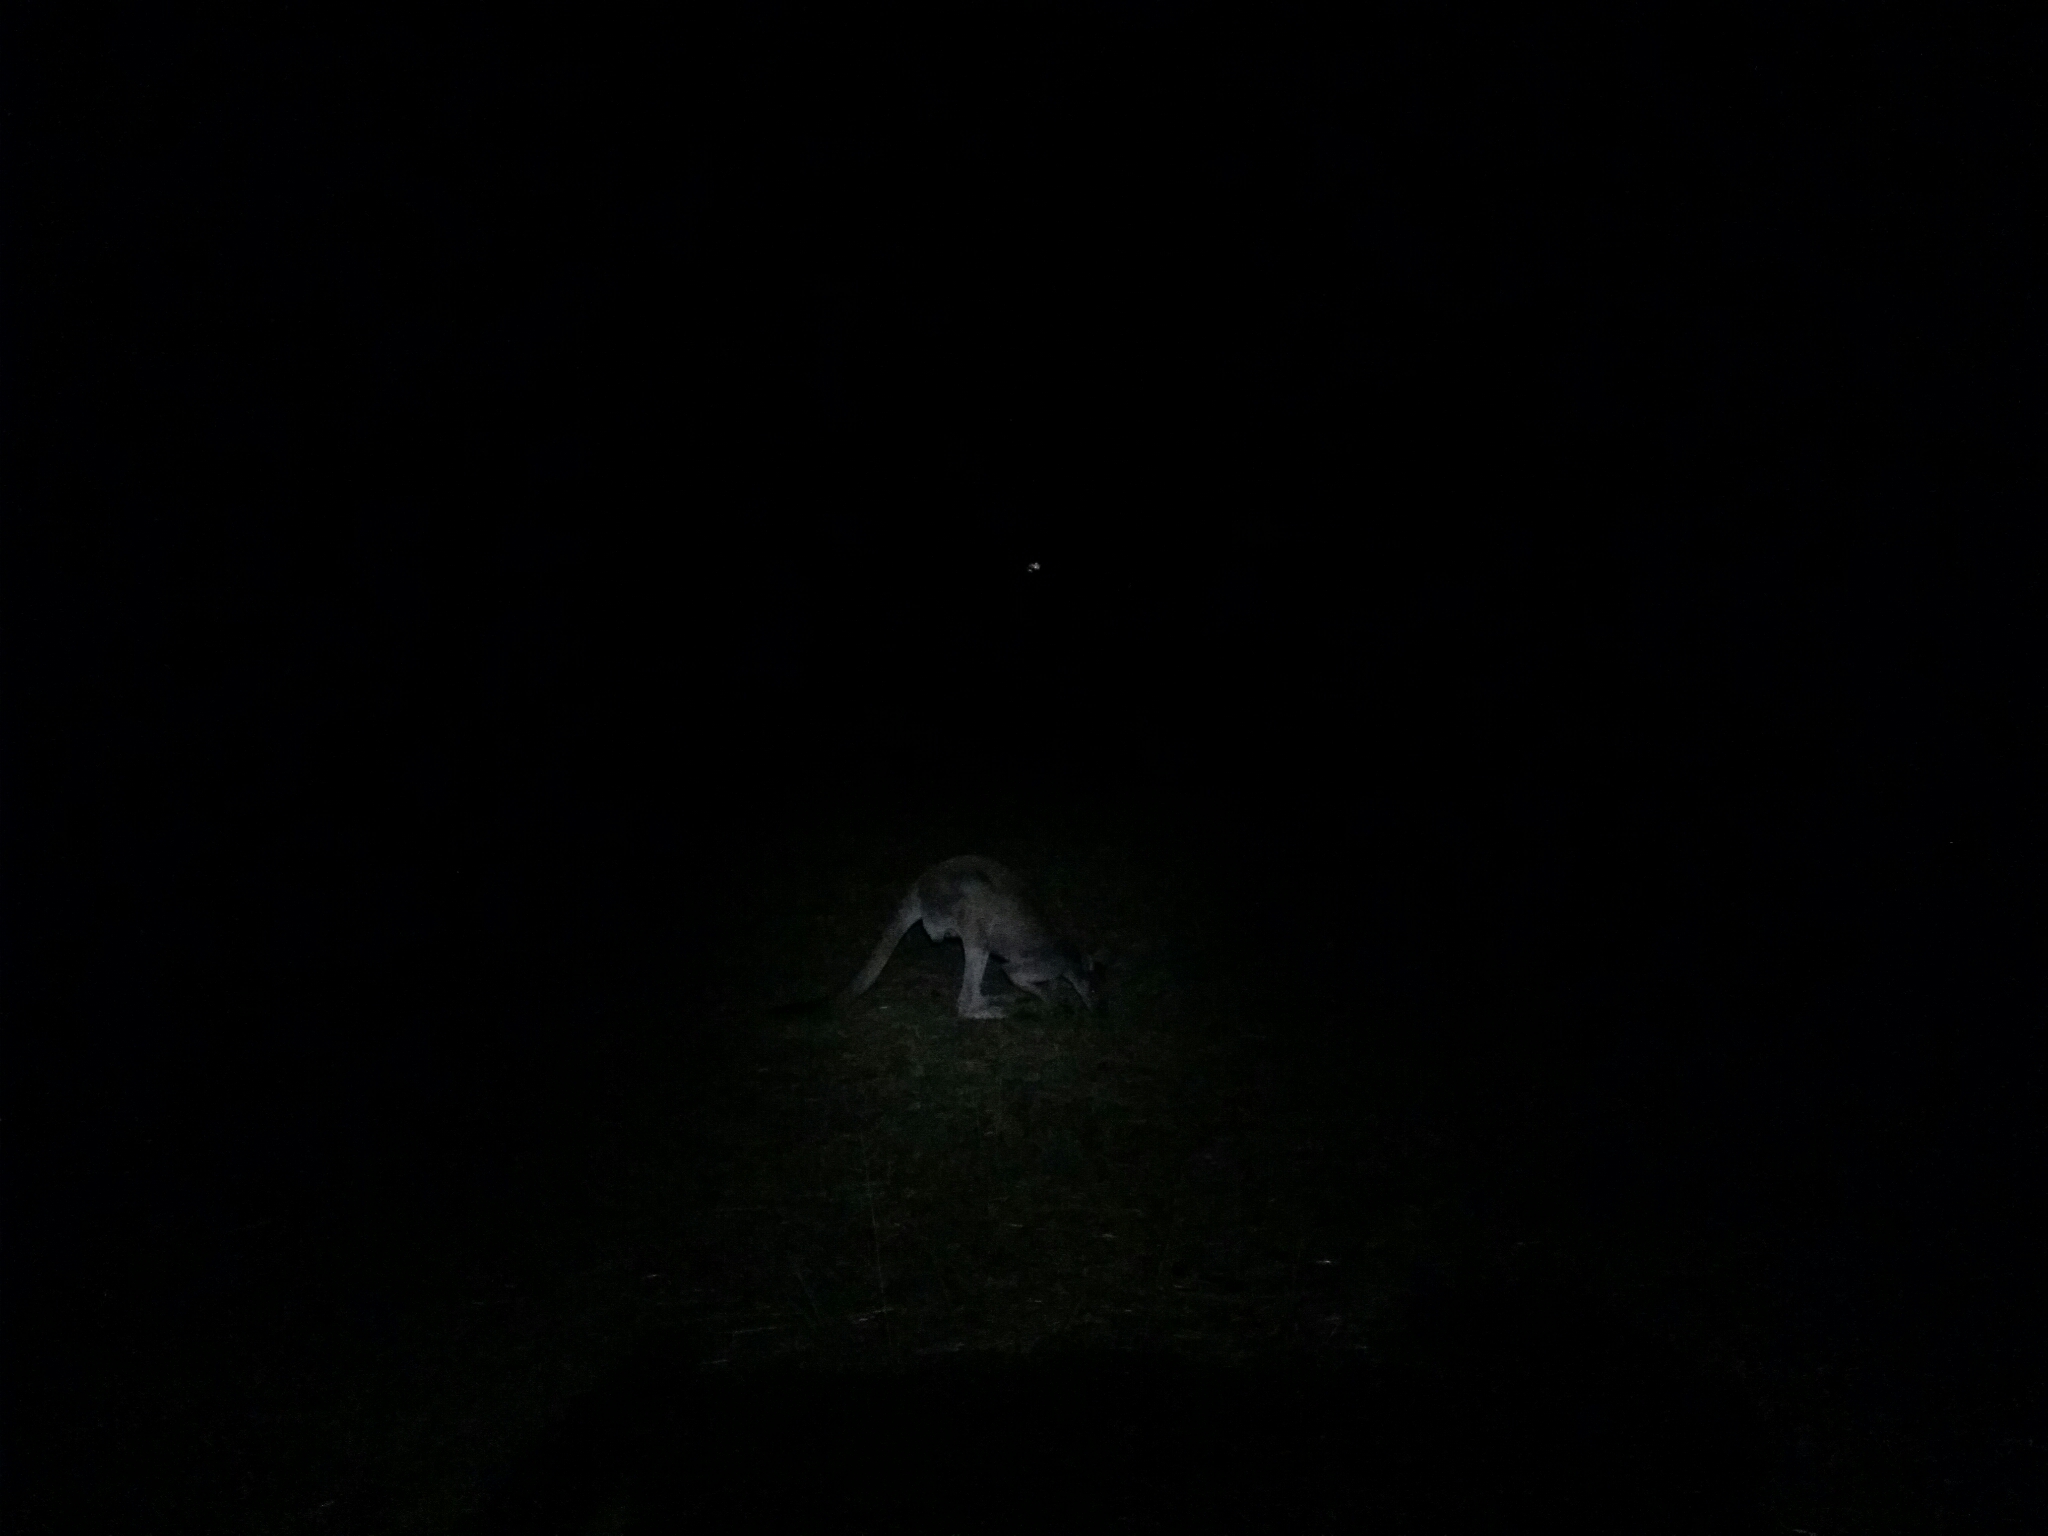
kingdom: Animalia
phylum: Chordata
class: Mammalia
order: Diprotodontia
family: Macropodidae
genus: Macropus
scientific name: Macropus fuliginosus
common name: Western grey kangaroo
